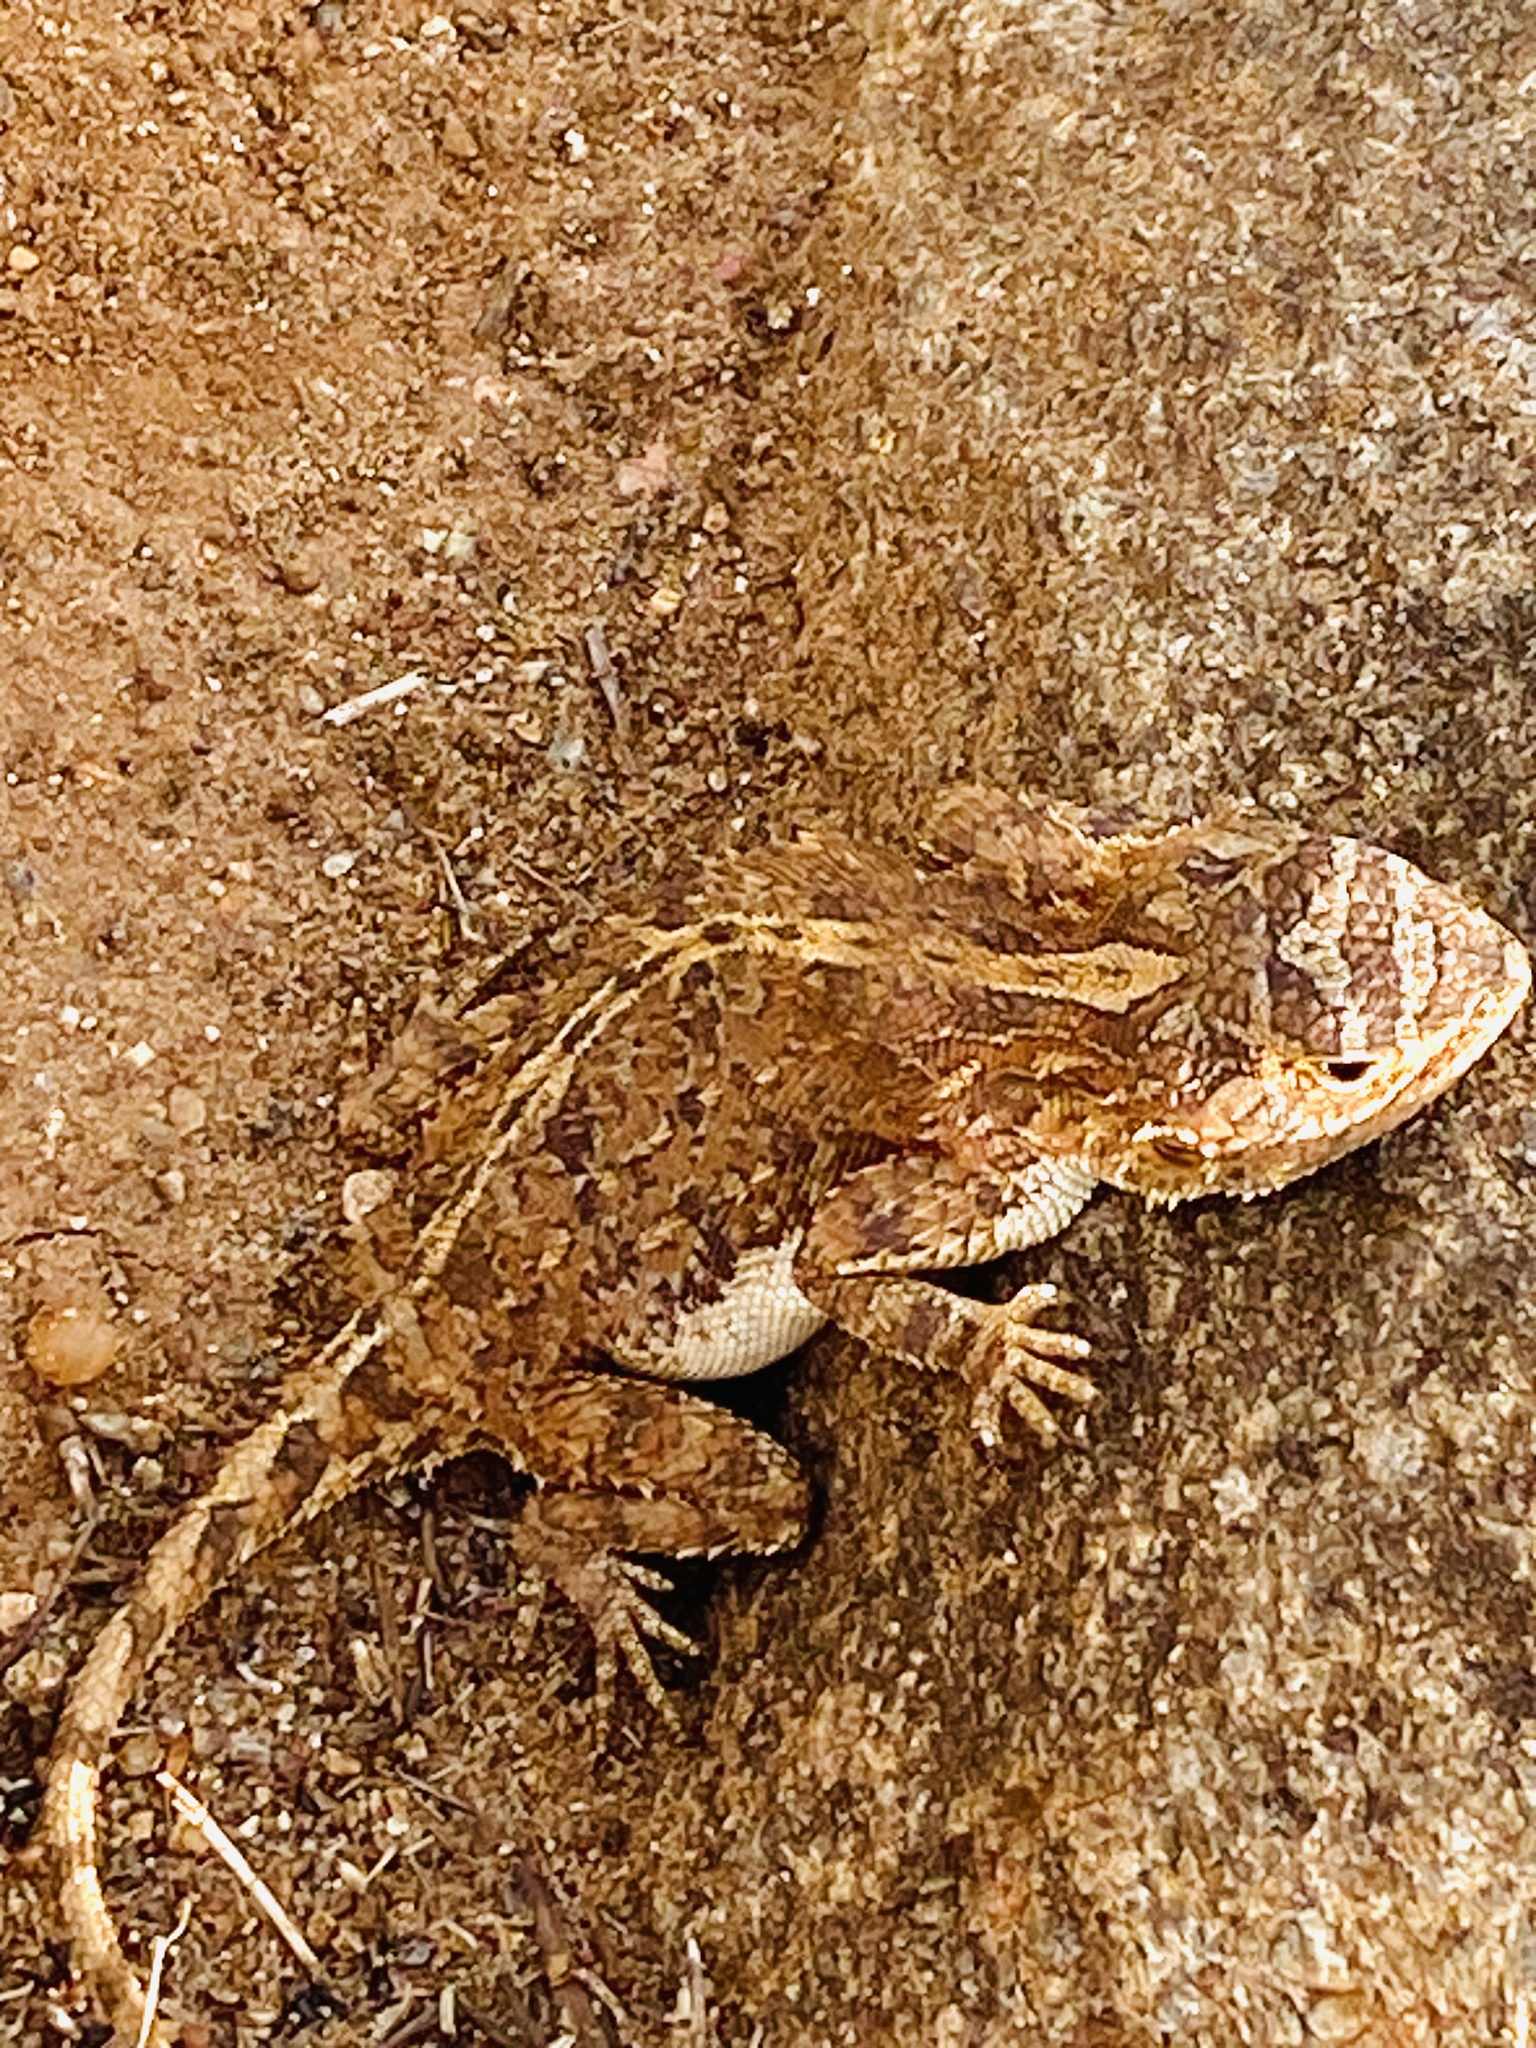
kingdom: Animalia
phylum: Chordata
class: Squamata
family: Agamidae
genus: Agama
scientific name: Agama aculeata
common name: Common ground agama
